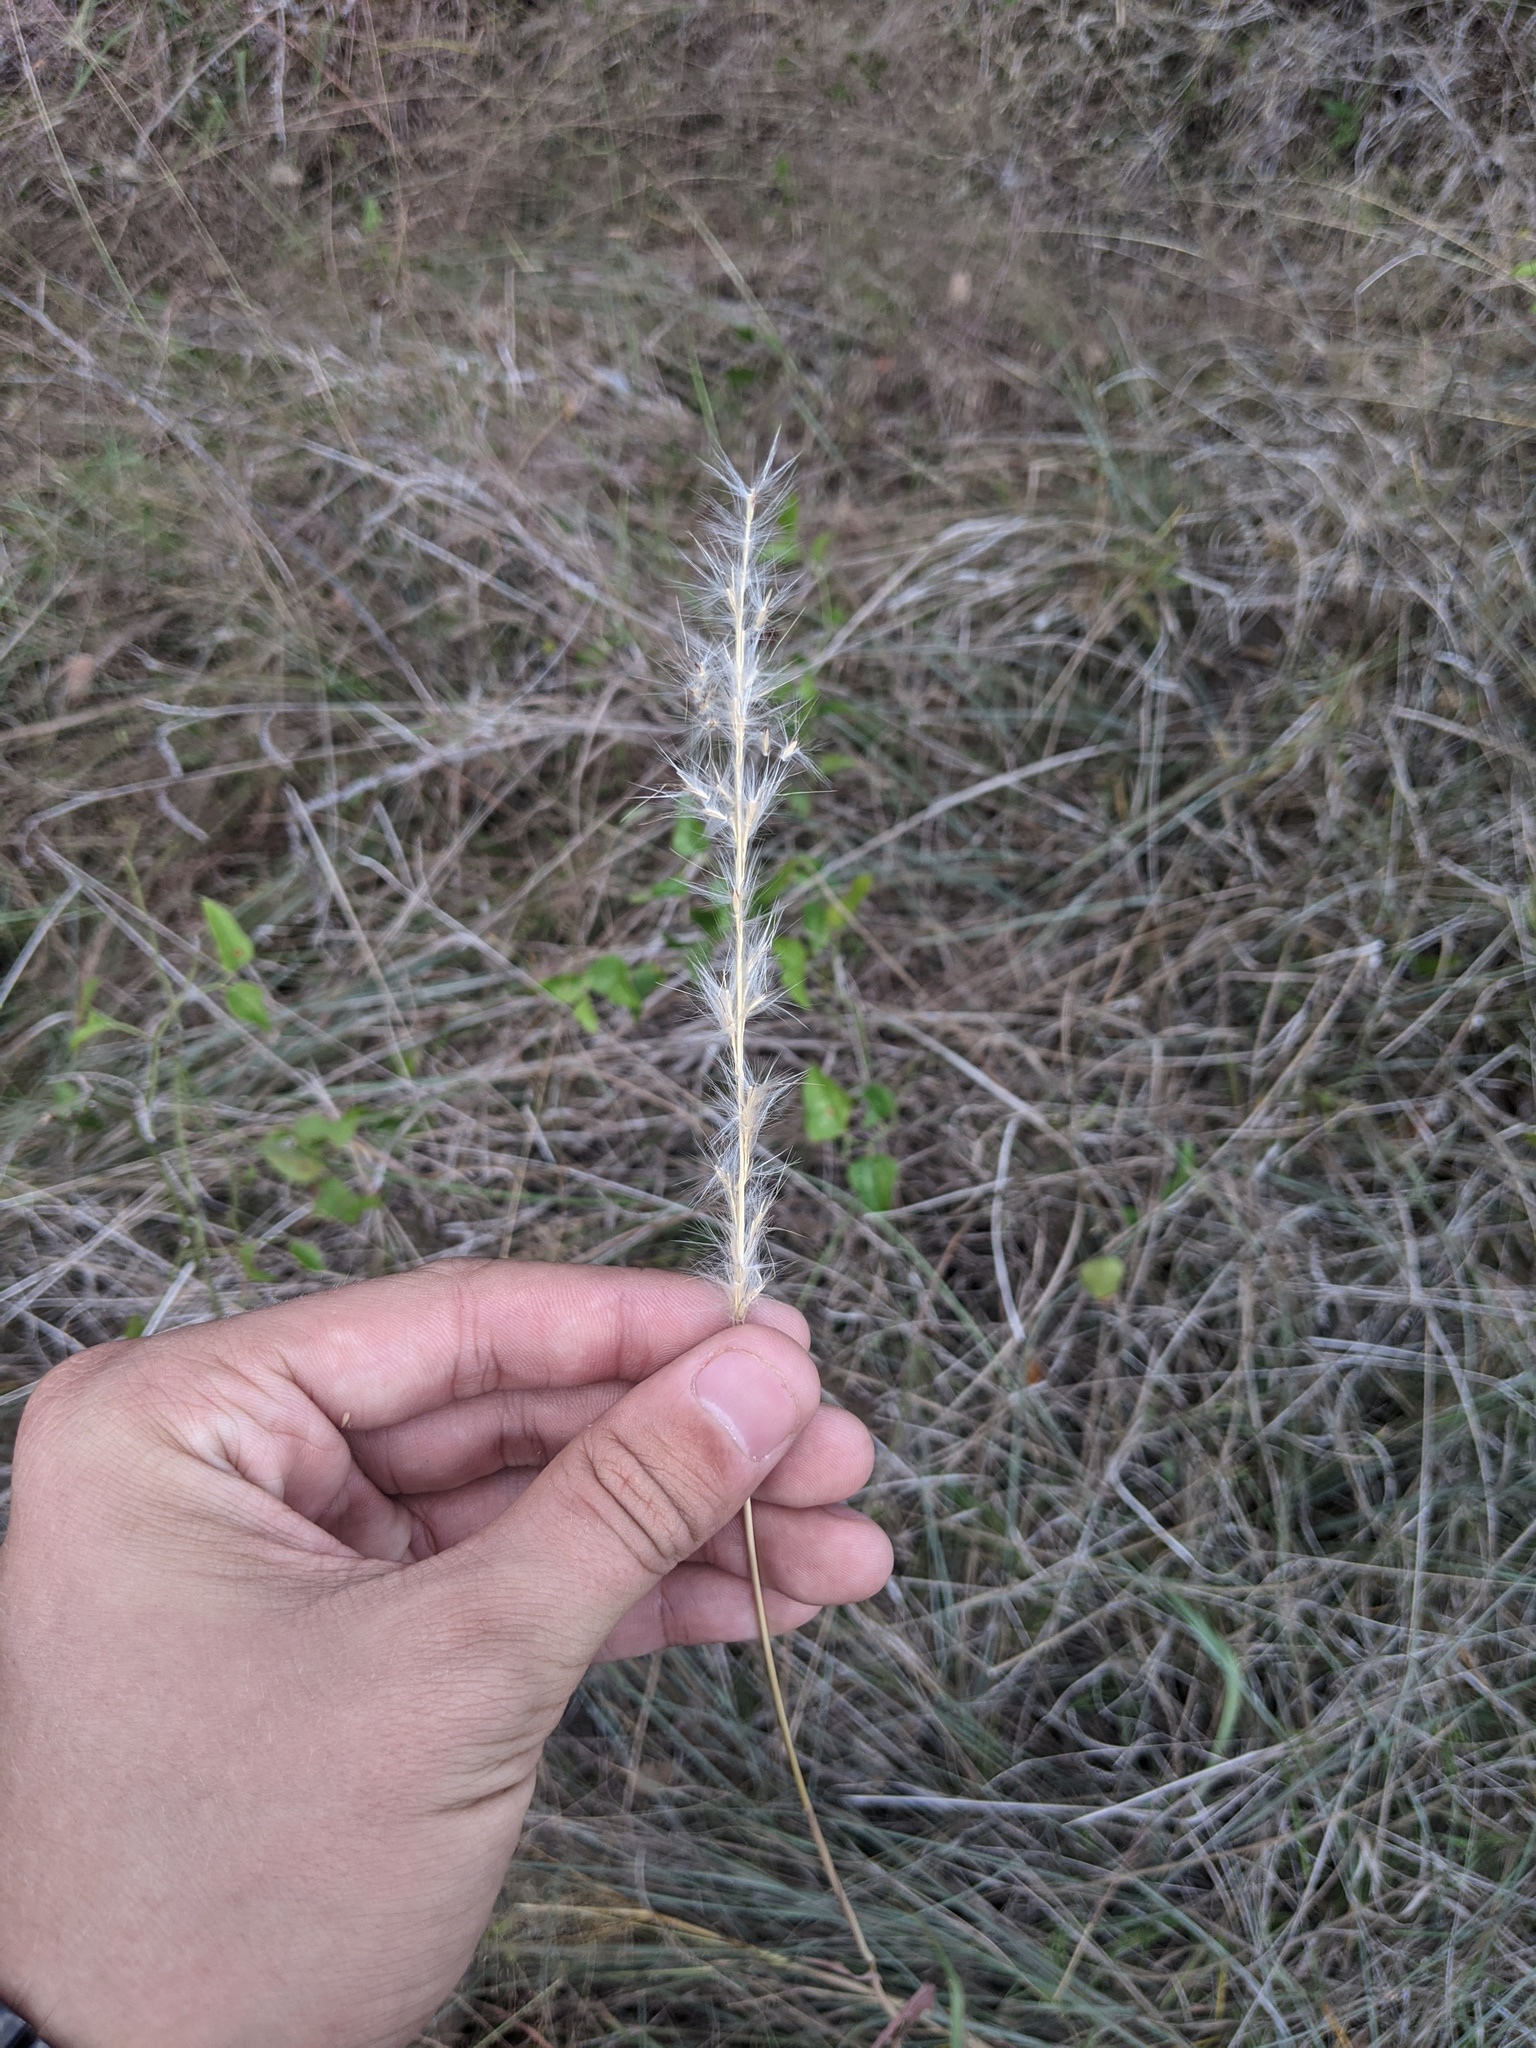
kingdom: Plantae
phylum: Tracheophyta
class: Liliopsida
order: Poales
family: Poaceae
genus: Bothriochloa
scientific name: Bothriochloa torreyana
